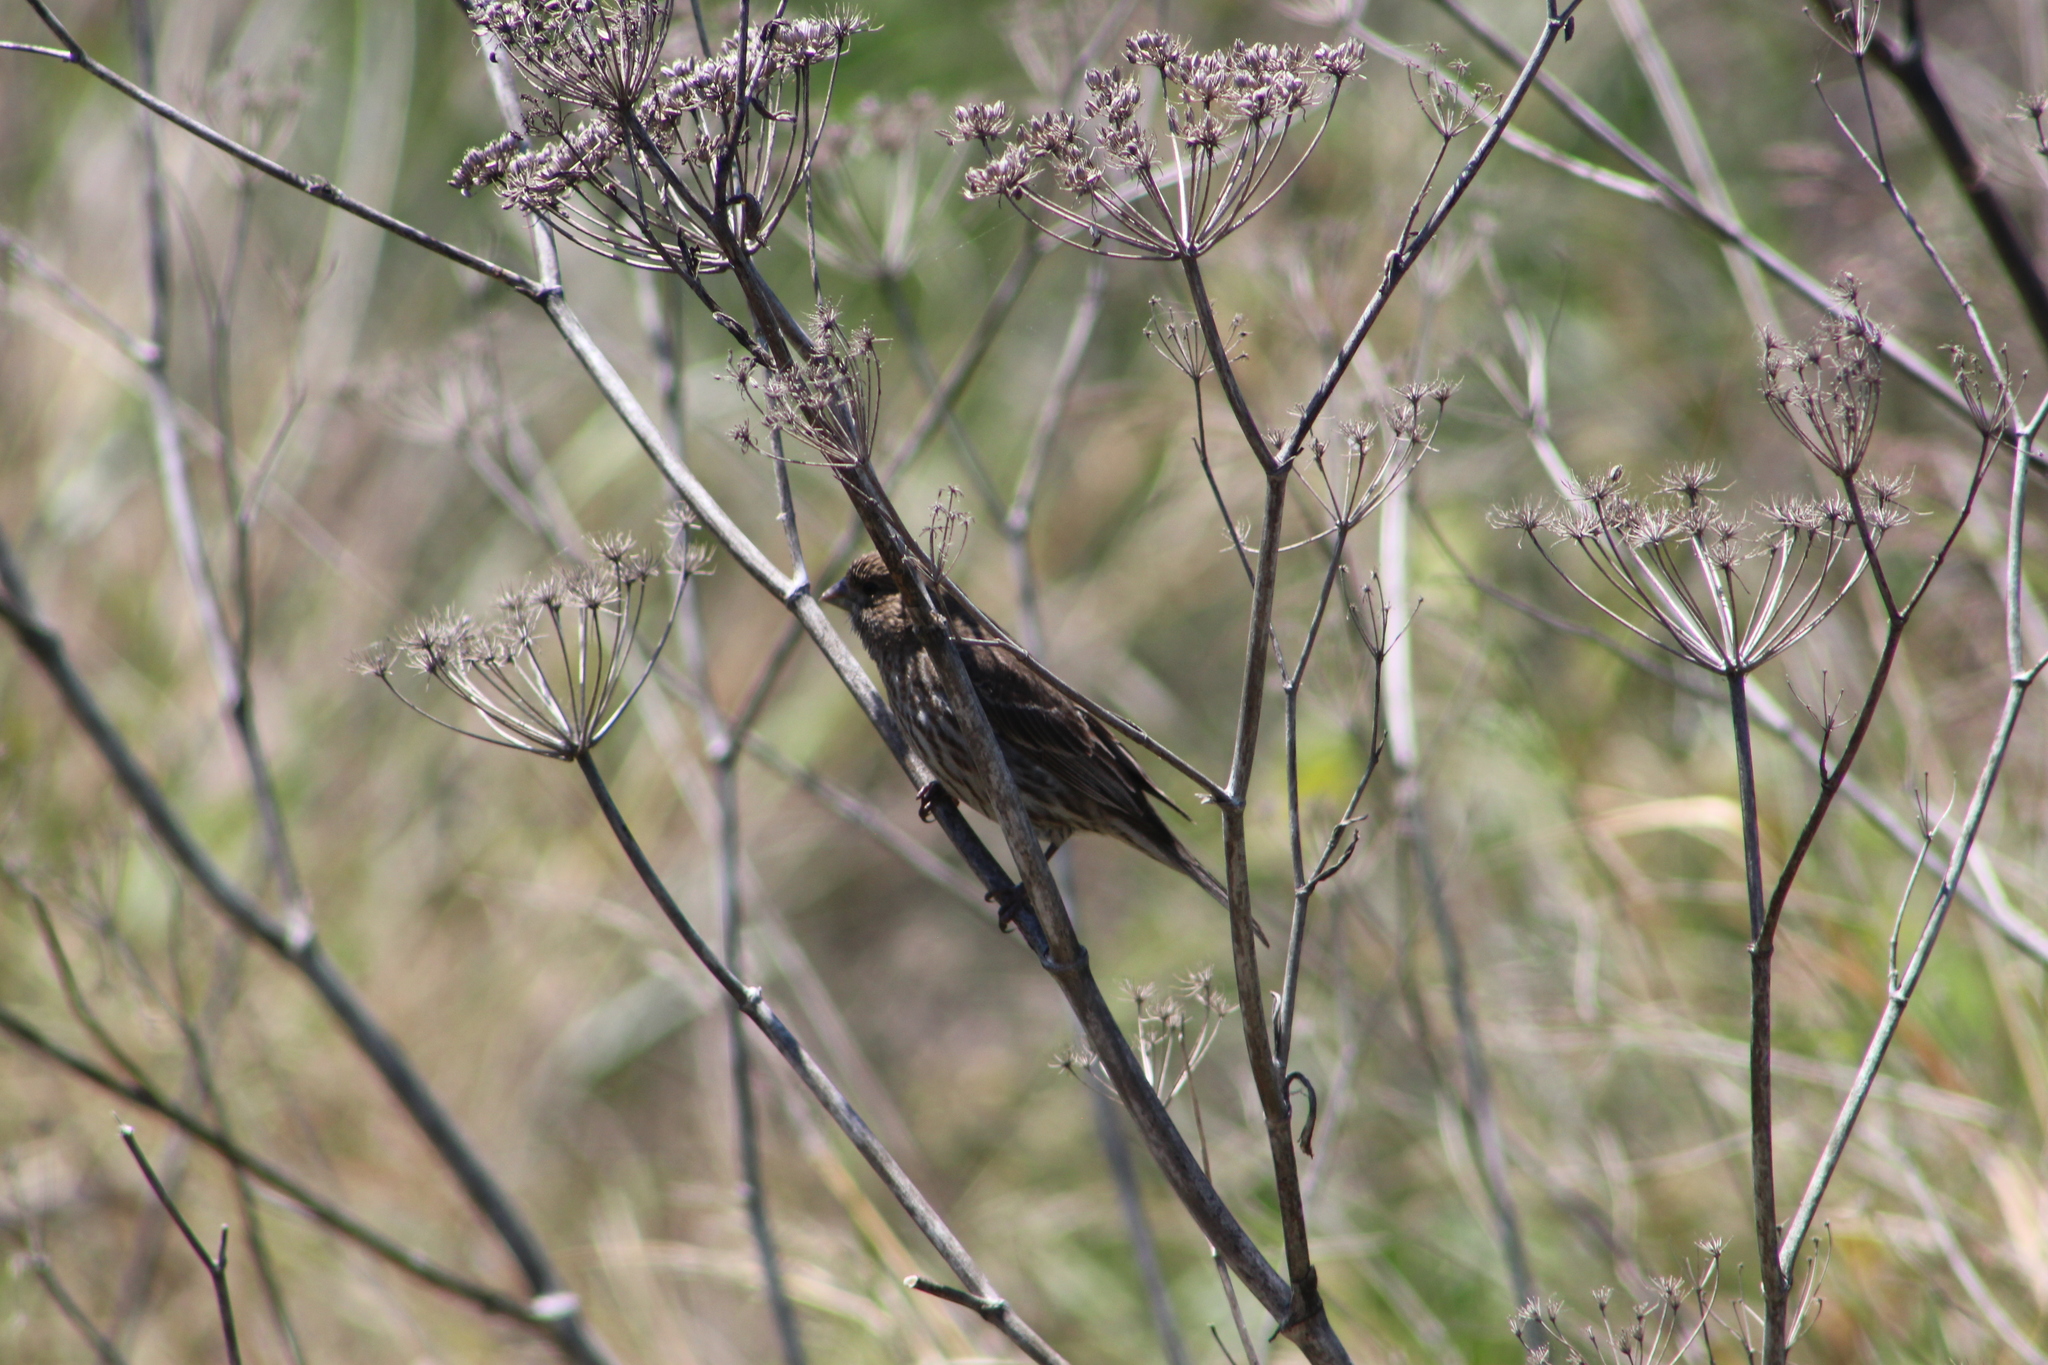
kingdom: Animalia
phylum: Chordata
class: Aves
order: Passeriformes
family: Fringillidae
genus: Haemorhous
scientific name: Haemorhous mexicanus
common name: House finch
